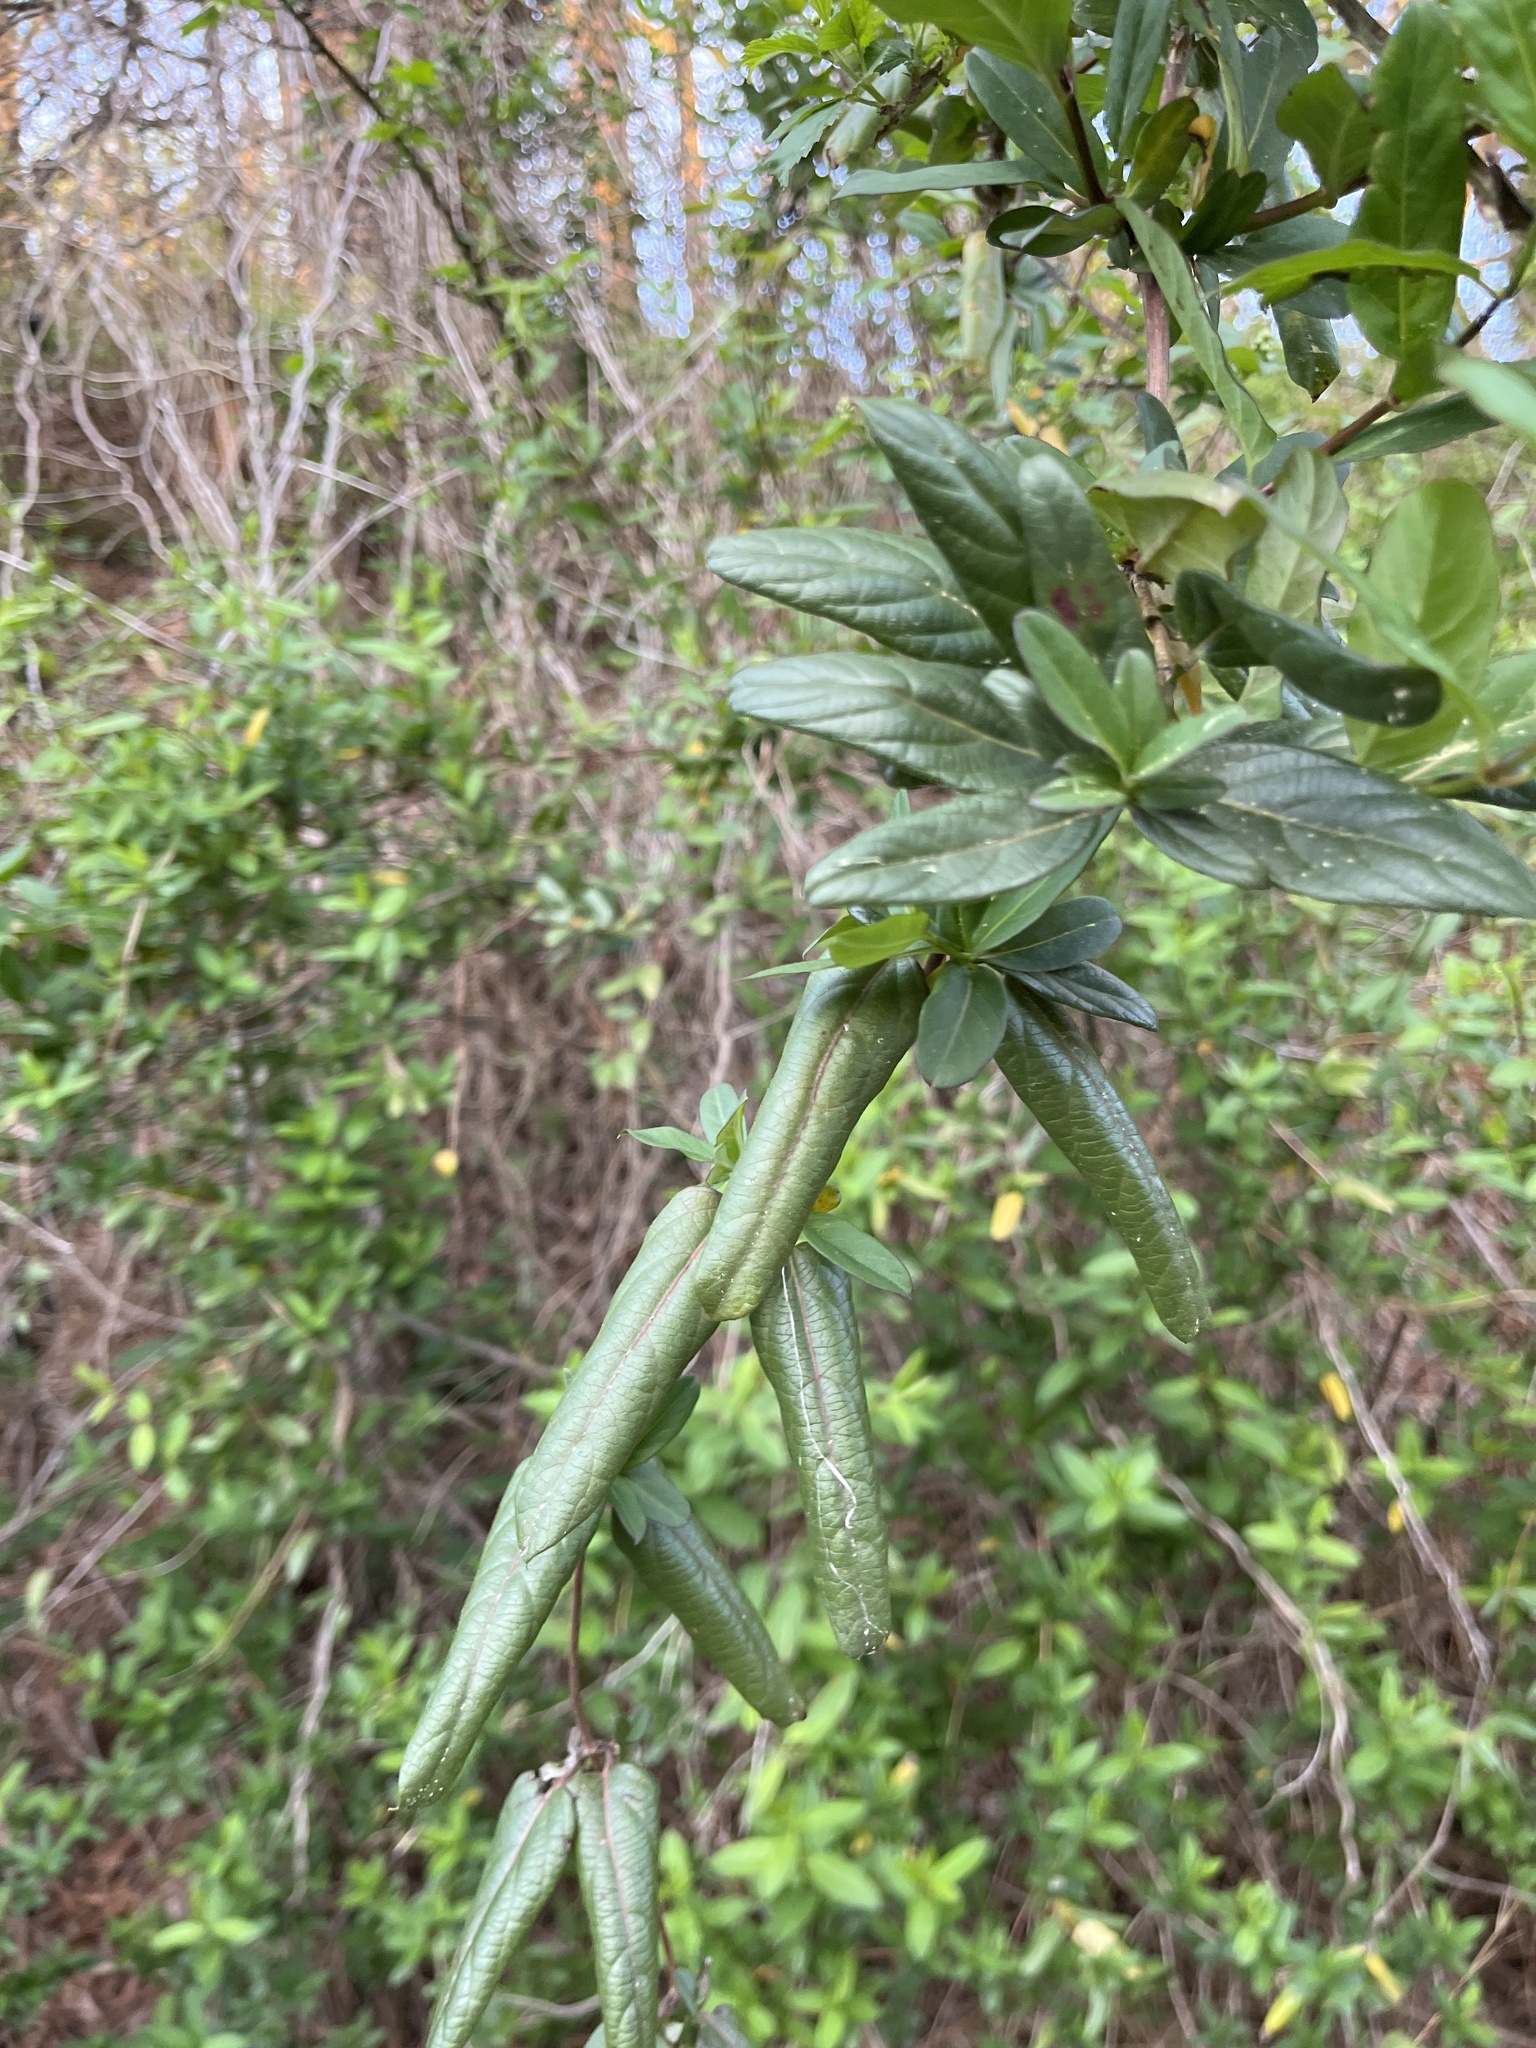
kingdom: Plantae
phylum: Tracheophyta
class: Magnoliopsida
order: Dipsacales
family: Caprifoliaceae
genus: Lonicera
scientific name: Lonicera japonica
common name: Japanese honeysuckle
